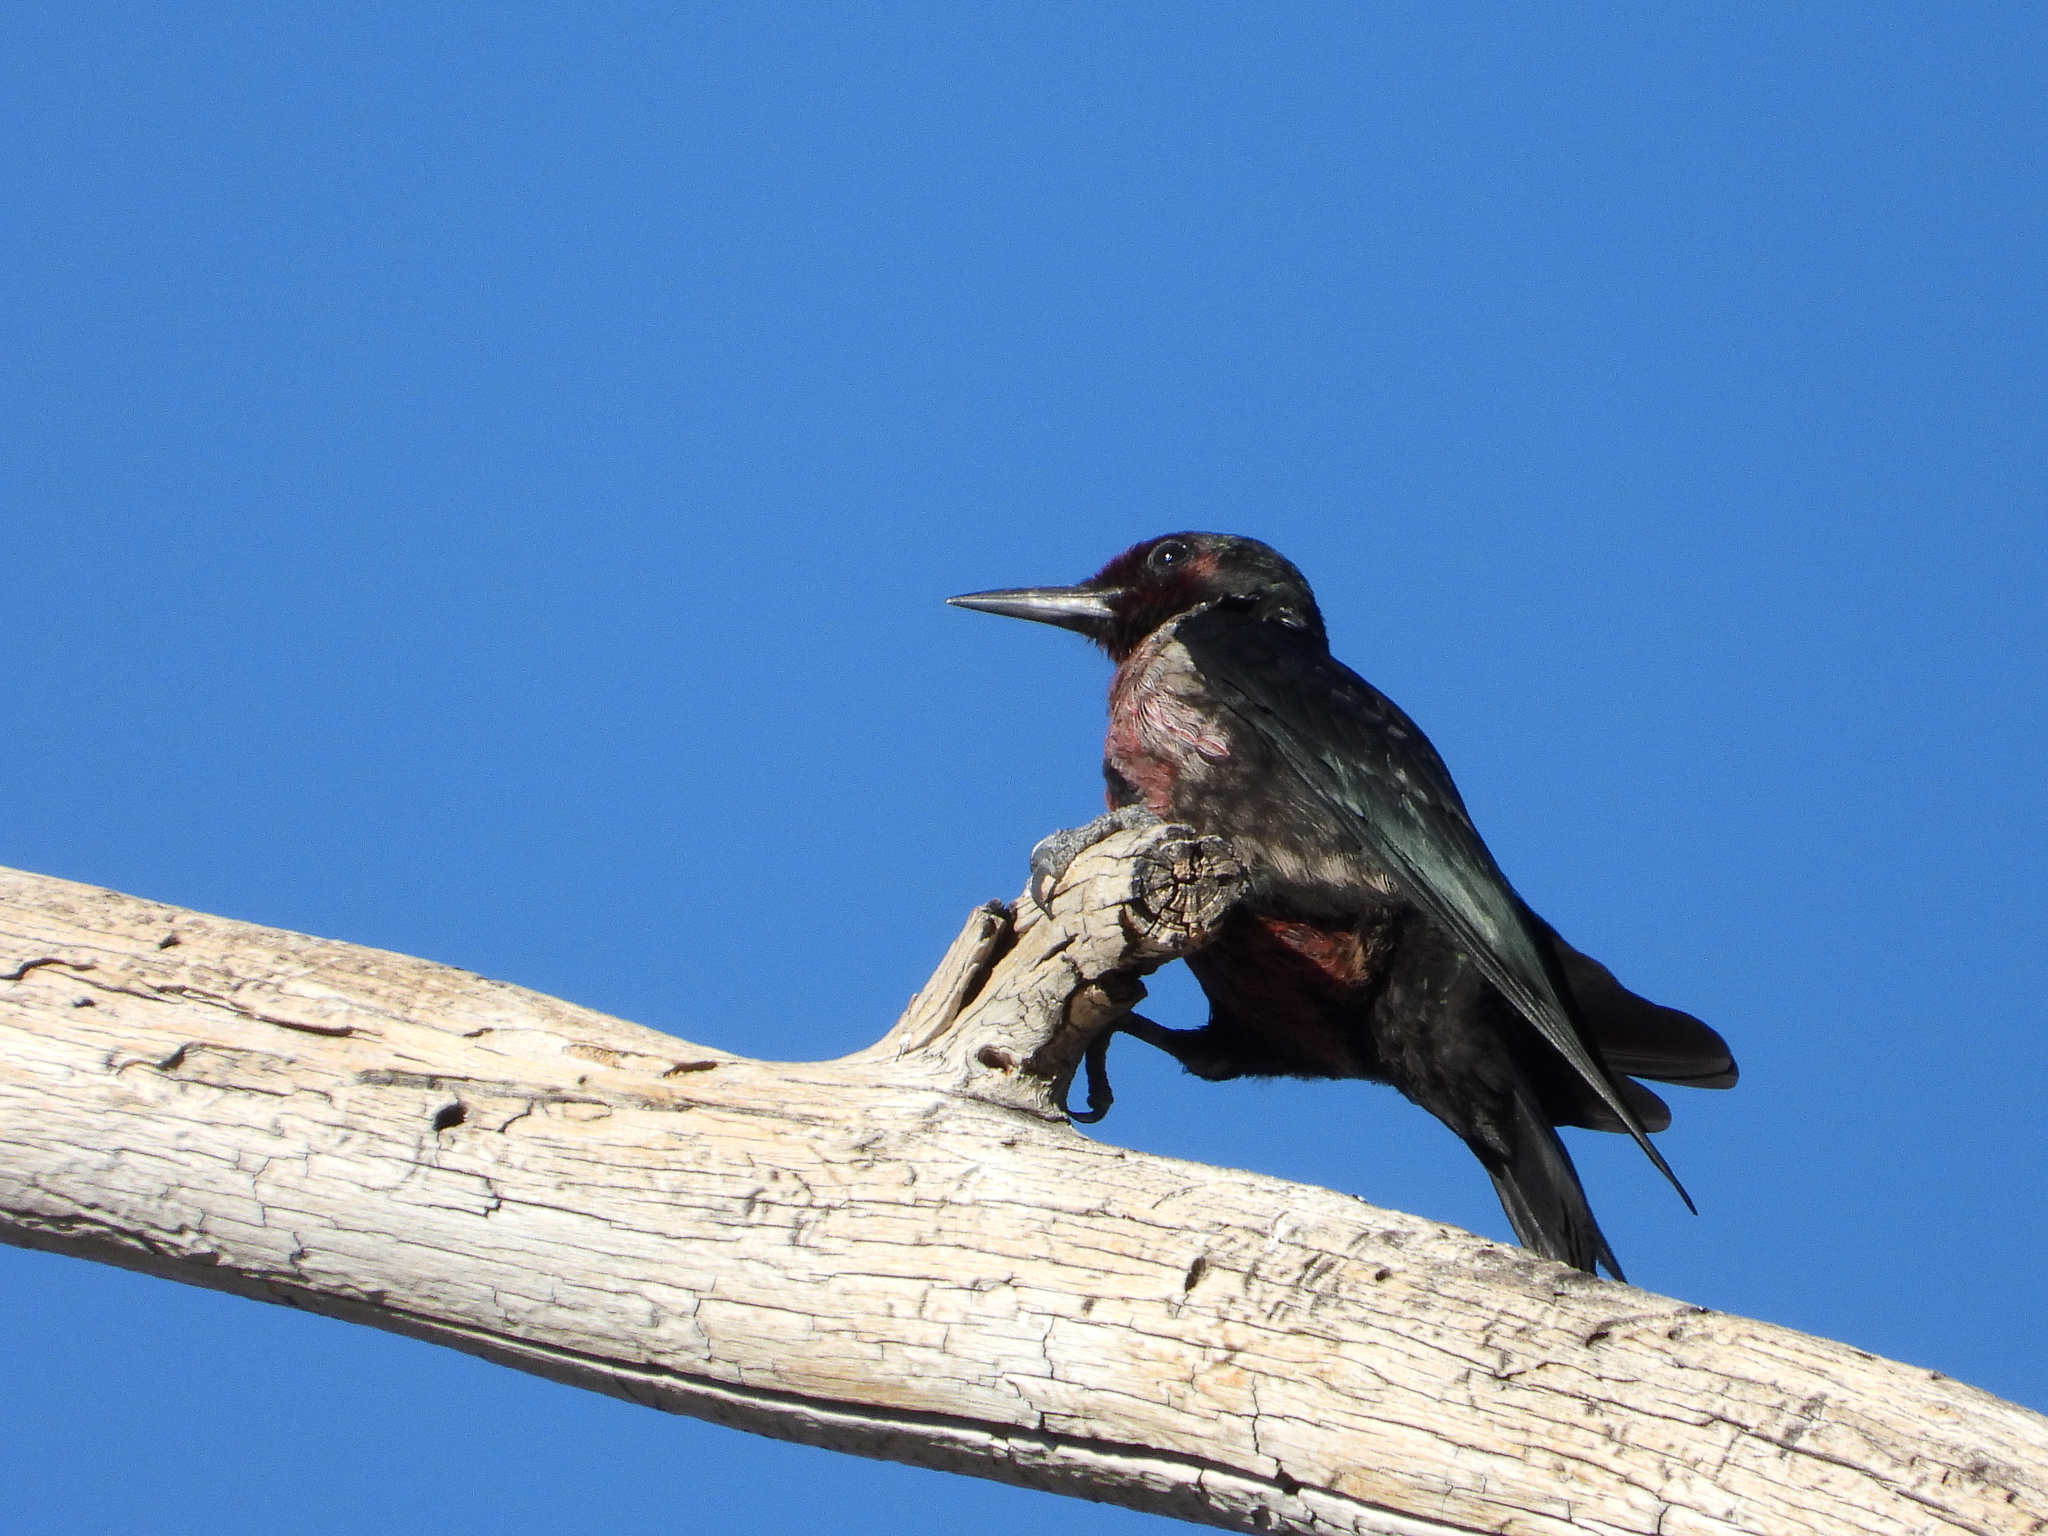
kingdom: Animalia
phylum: Chordata
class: Aves
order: Piciformes
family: Picidae
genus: Melanerpes
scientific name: Melanerpes lewis
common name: Lewis's woodpecker
